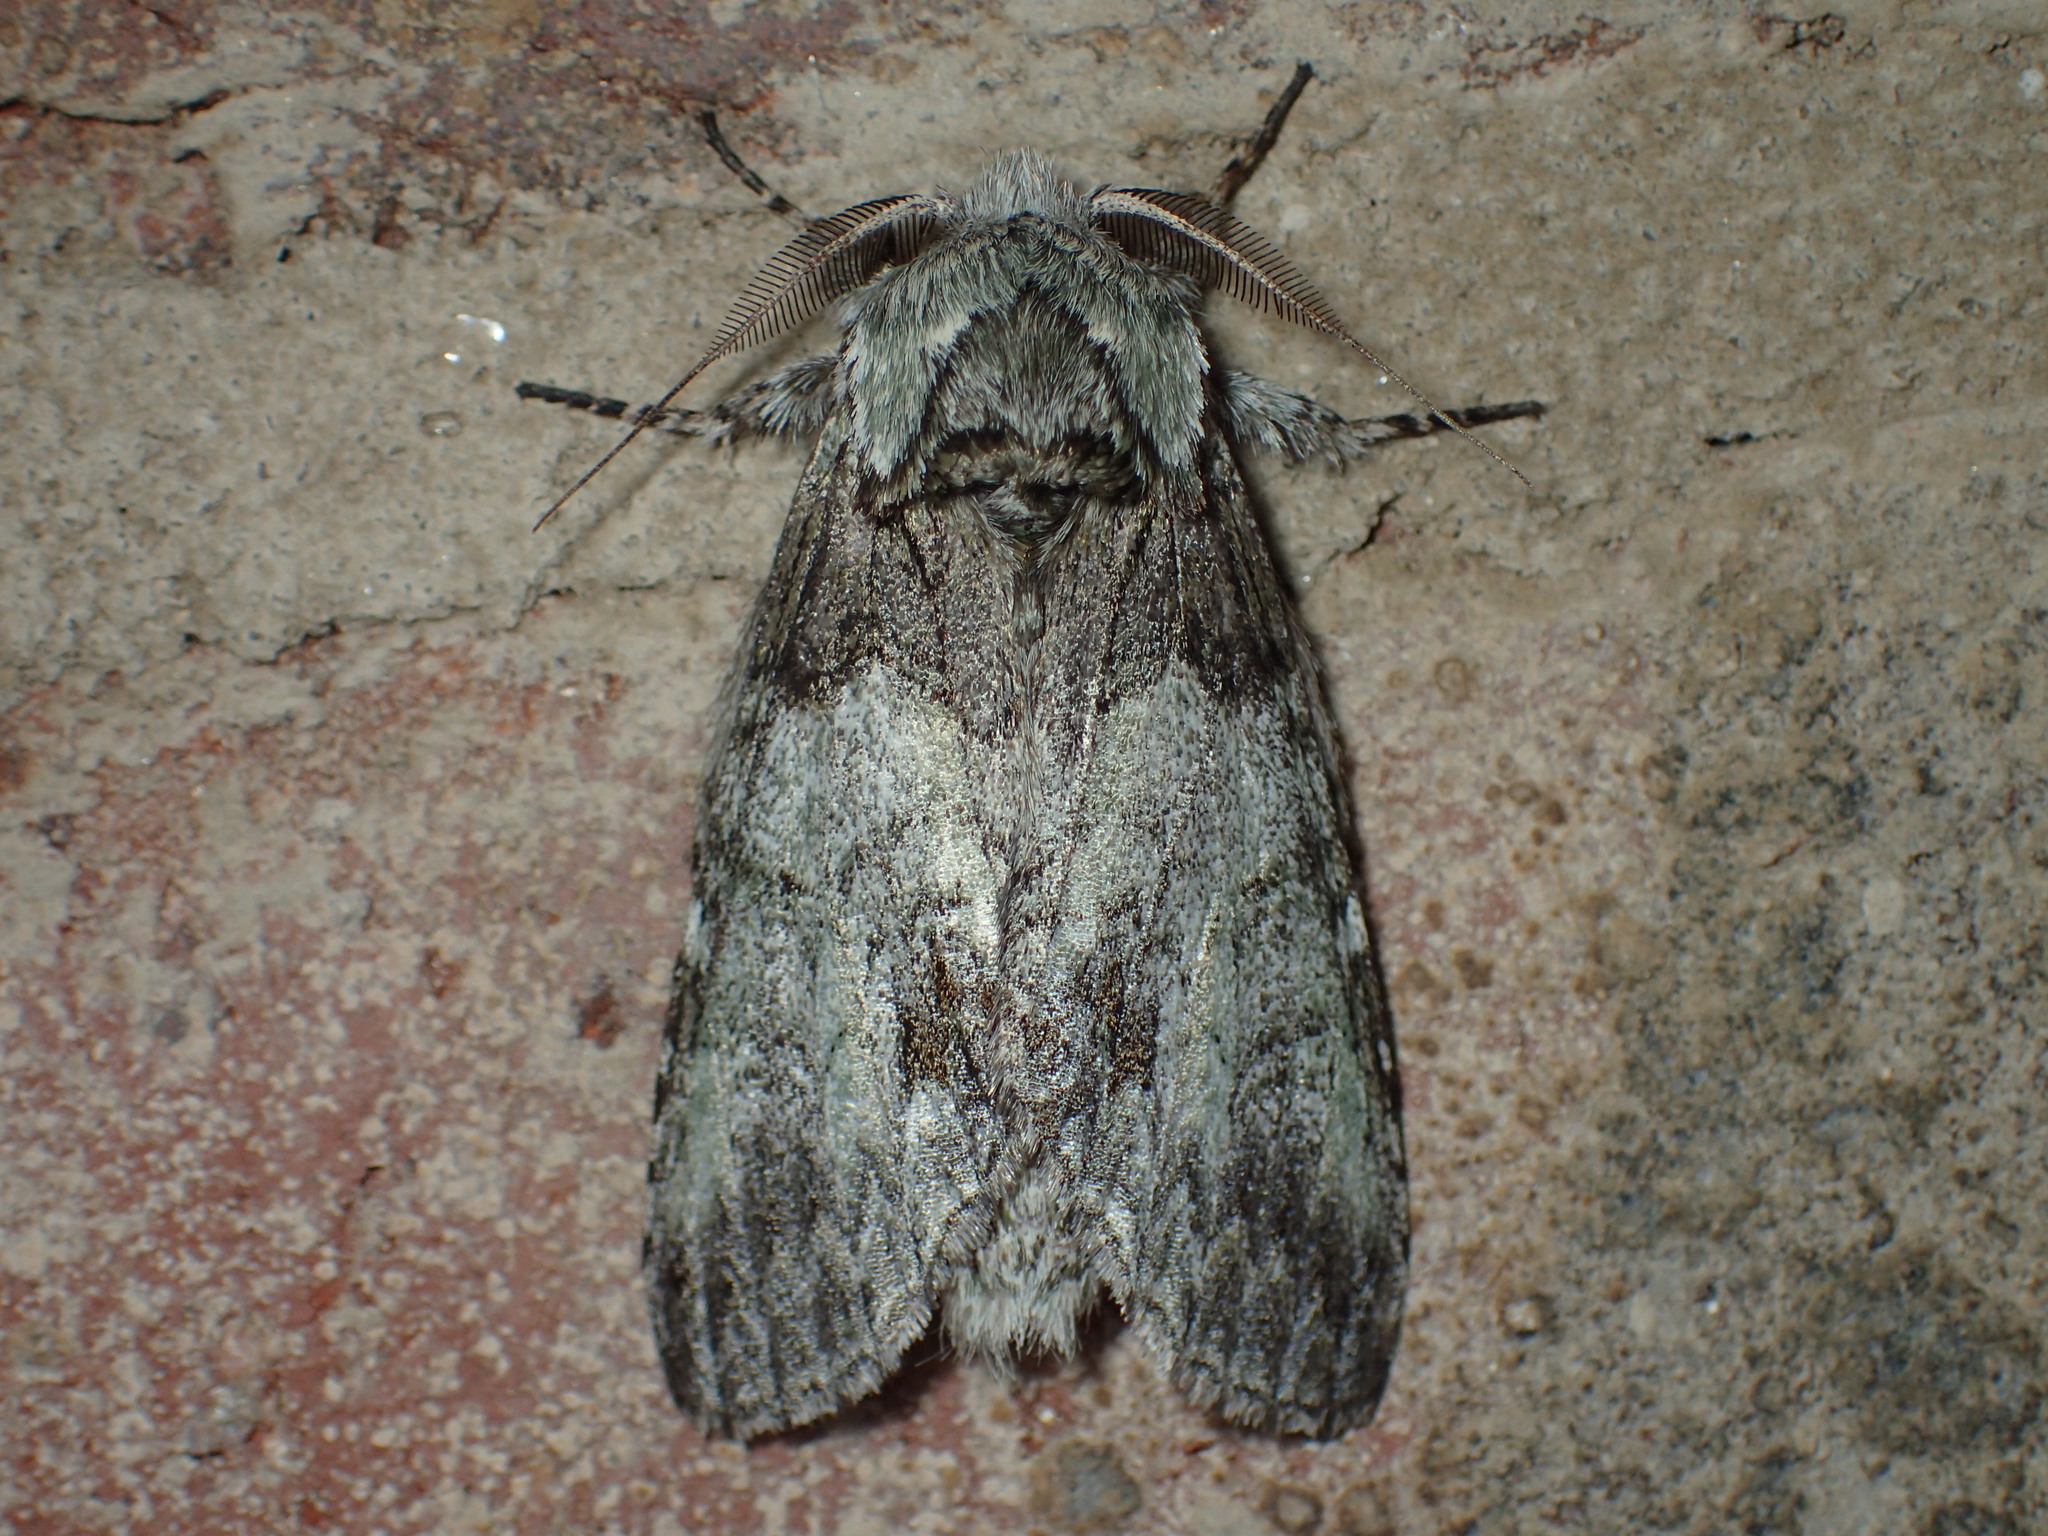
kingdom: Animalia
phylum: Arthropoda
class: Insecta
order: Lepidoptera
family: Notodontidae
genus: Macrurocampa
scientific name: Macrurocampa marthesia
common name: Mottled prominent
